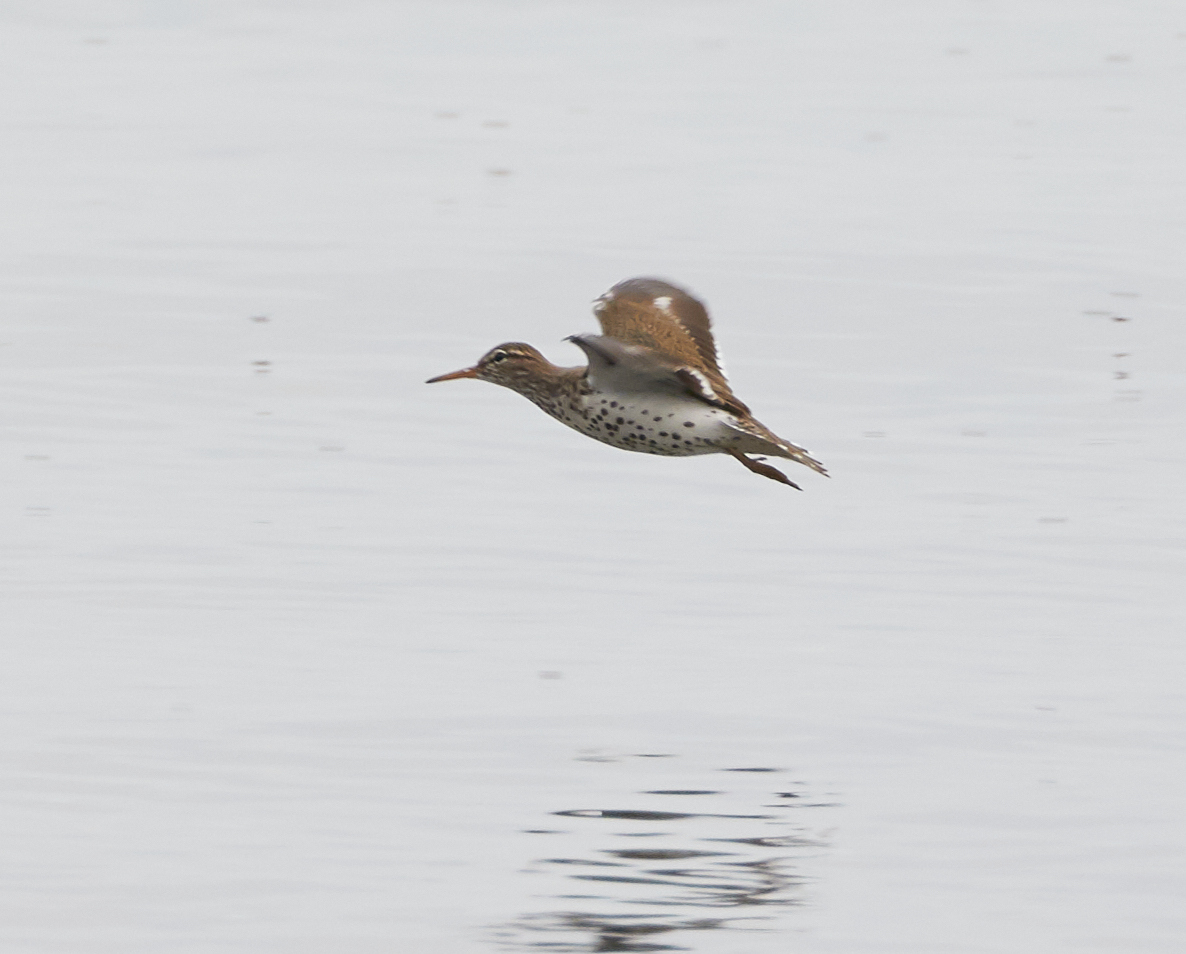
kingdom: Animalia
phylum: Chordata
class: Aves
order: Charadriiformes
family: Scolopacidae
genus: Actitis
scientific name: Actitis macularius
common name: Spotted sandpiper
